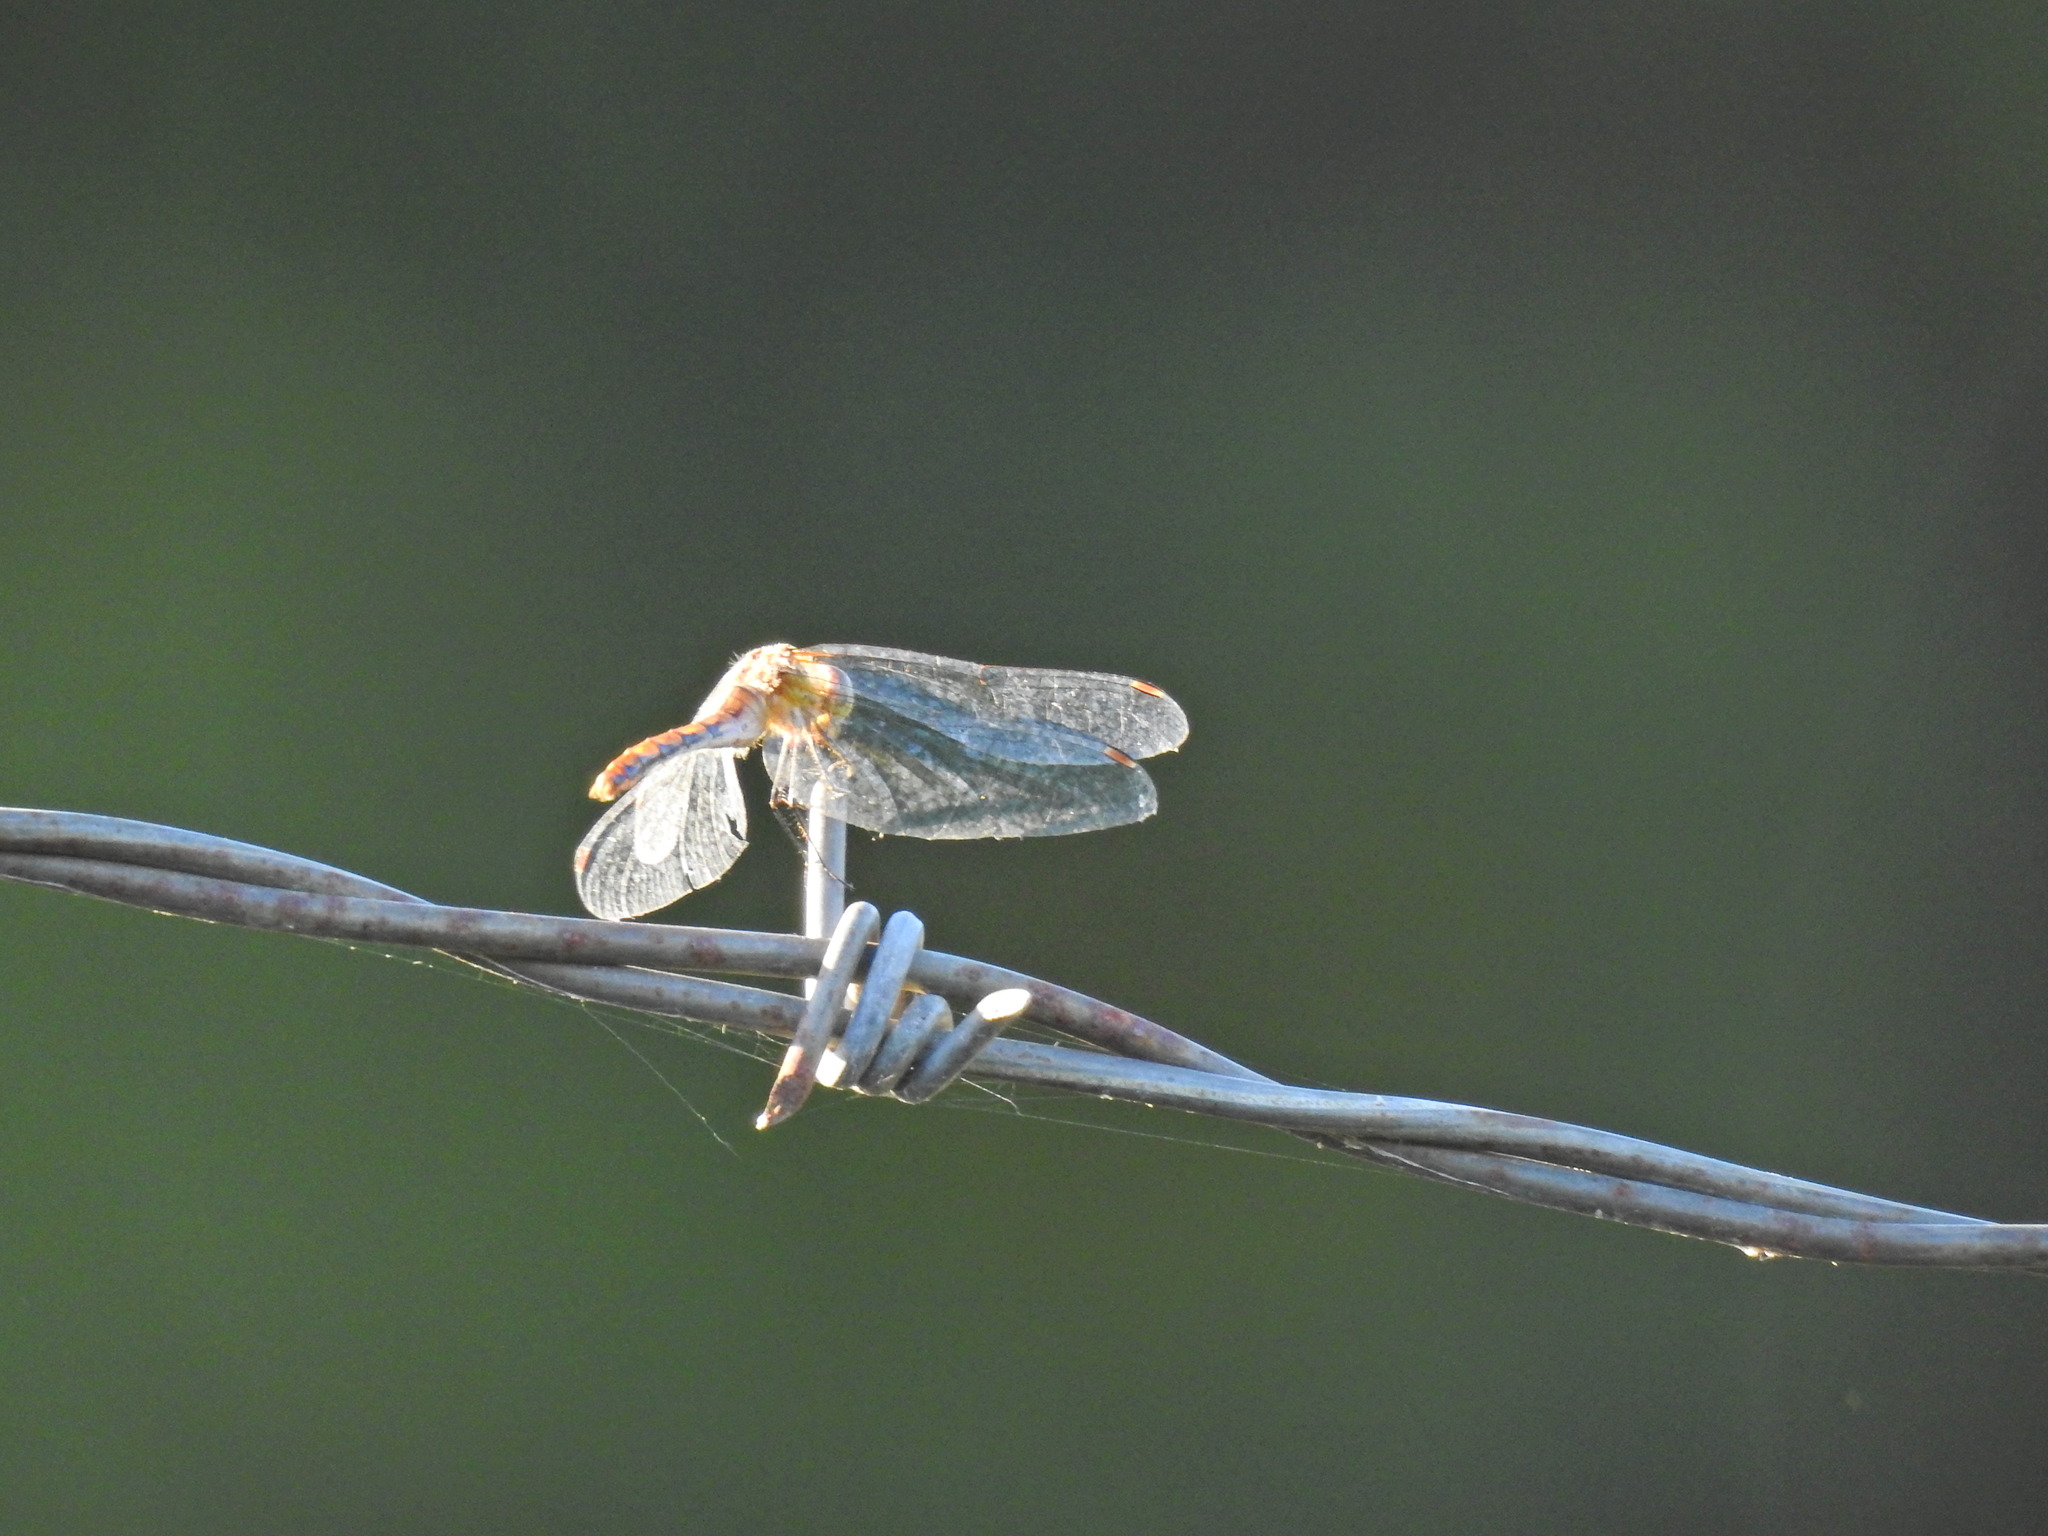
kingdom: Animalia
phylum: Arthropoda
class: Insecta
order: Odonata
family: Libellulidae
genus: Sympetrum
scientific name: Sympetrum vicinum
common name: Autumn meadowhawk
